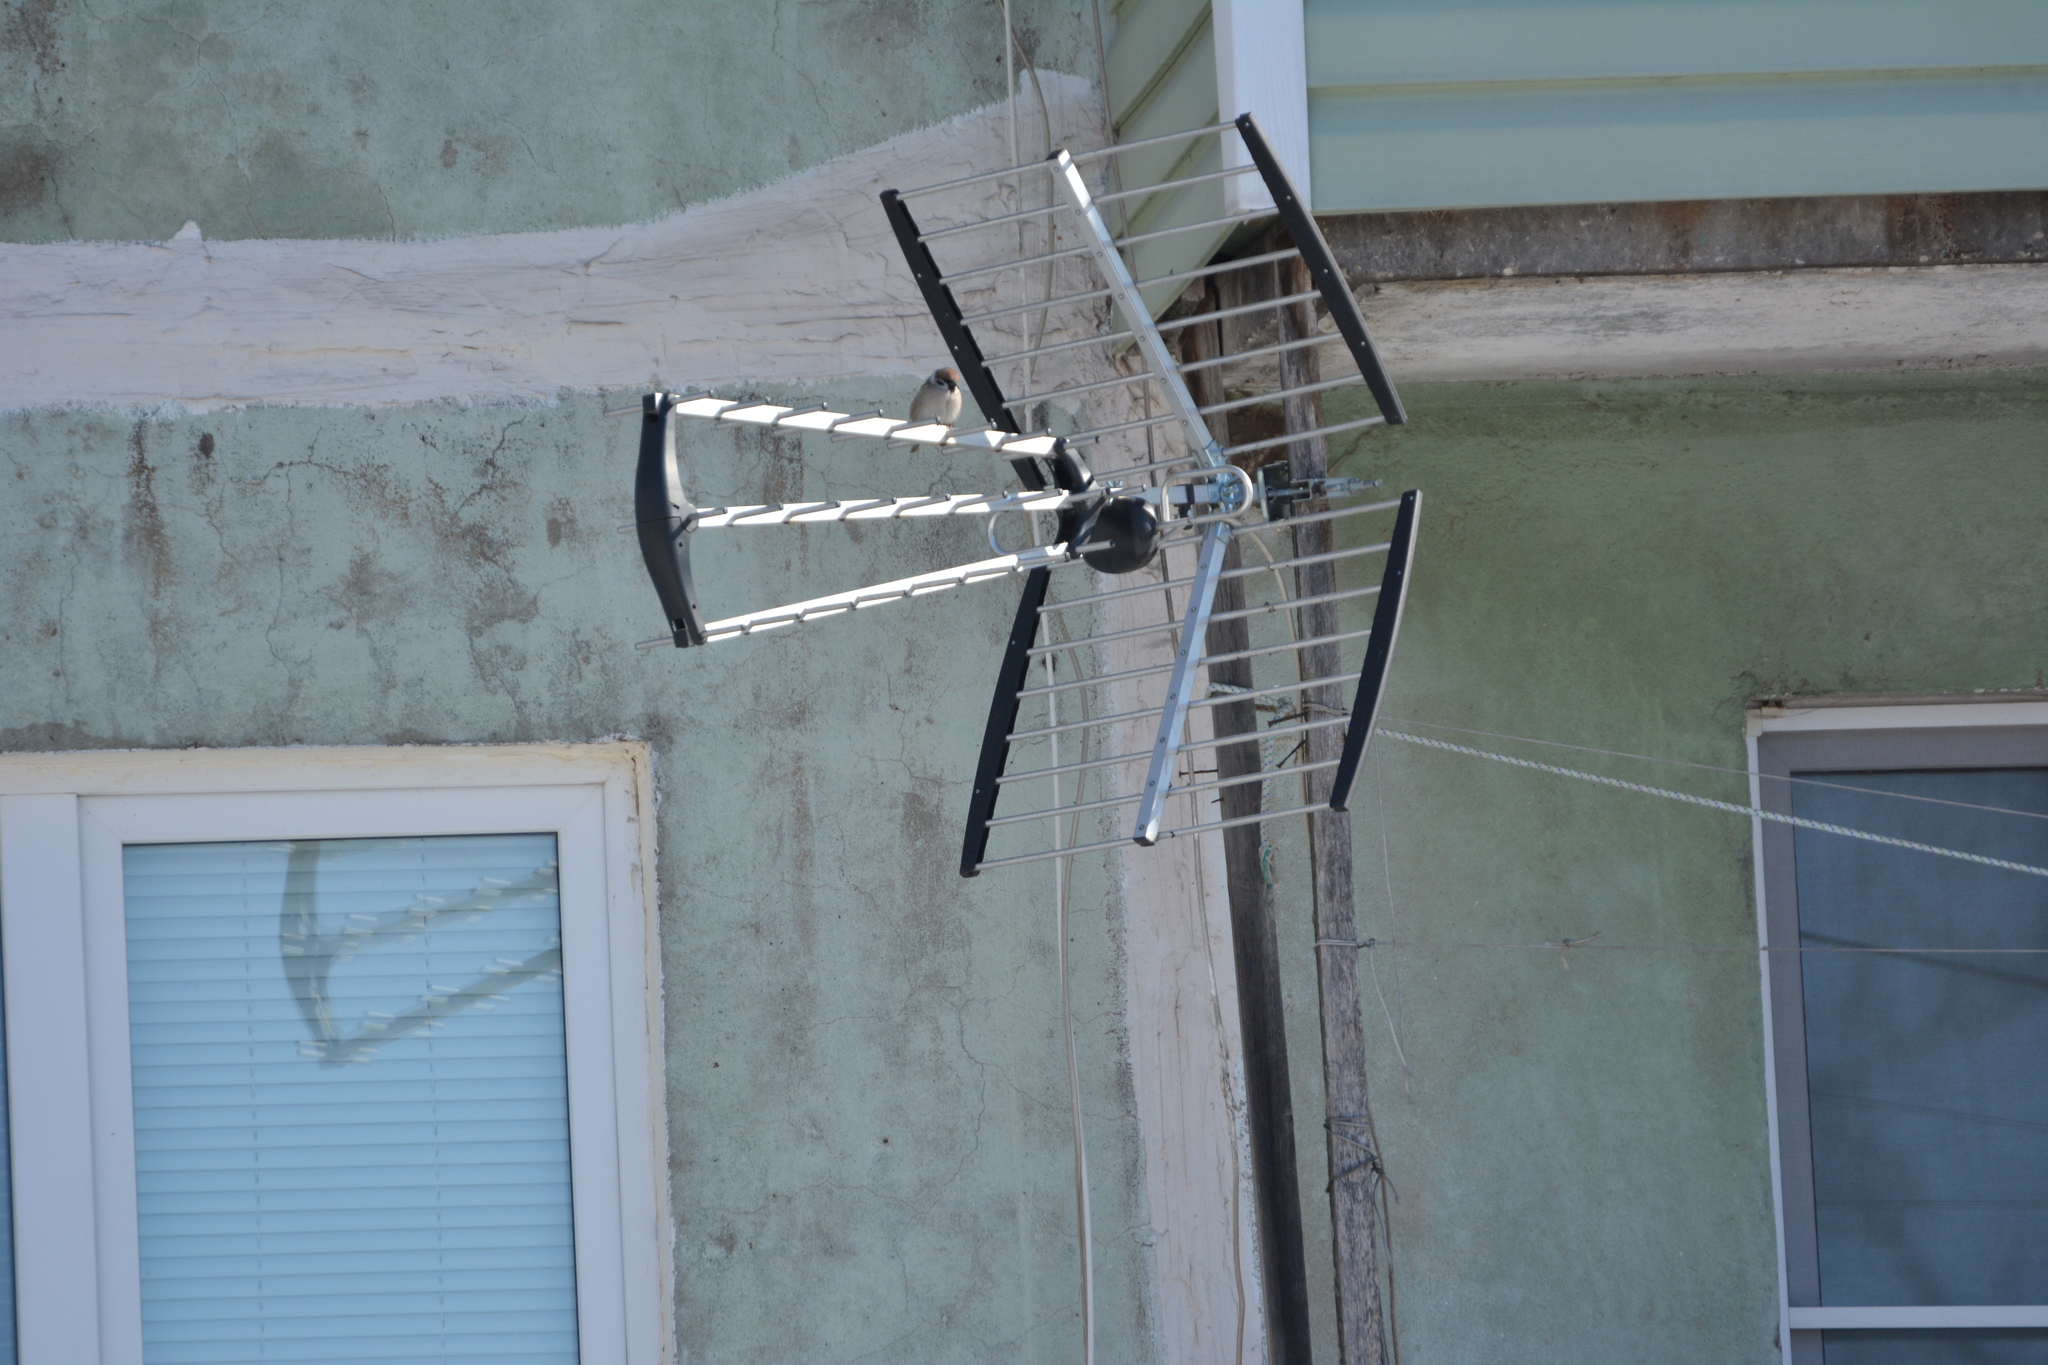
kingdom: Animalia
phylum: Chordata
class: Aves
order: Passeriformes
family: Passeridae
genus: Passer
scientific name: Passer montanus
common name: Eurasian tree sparrow
